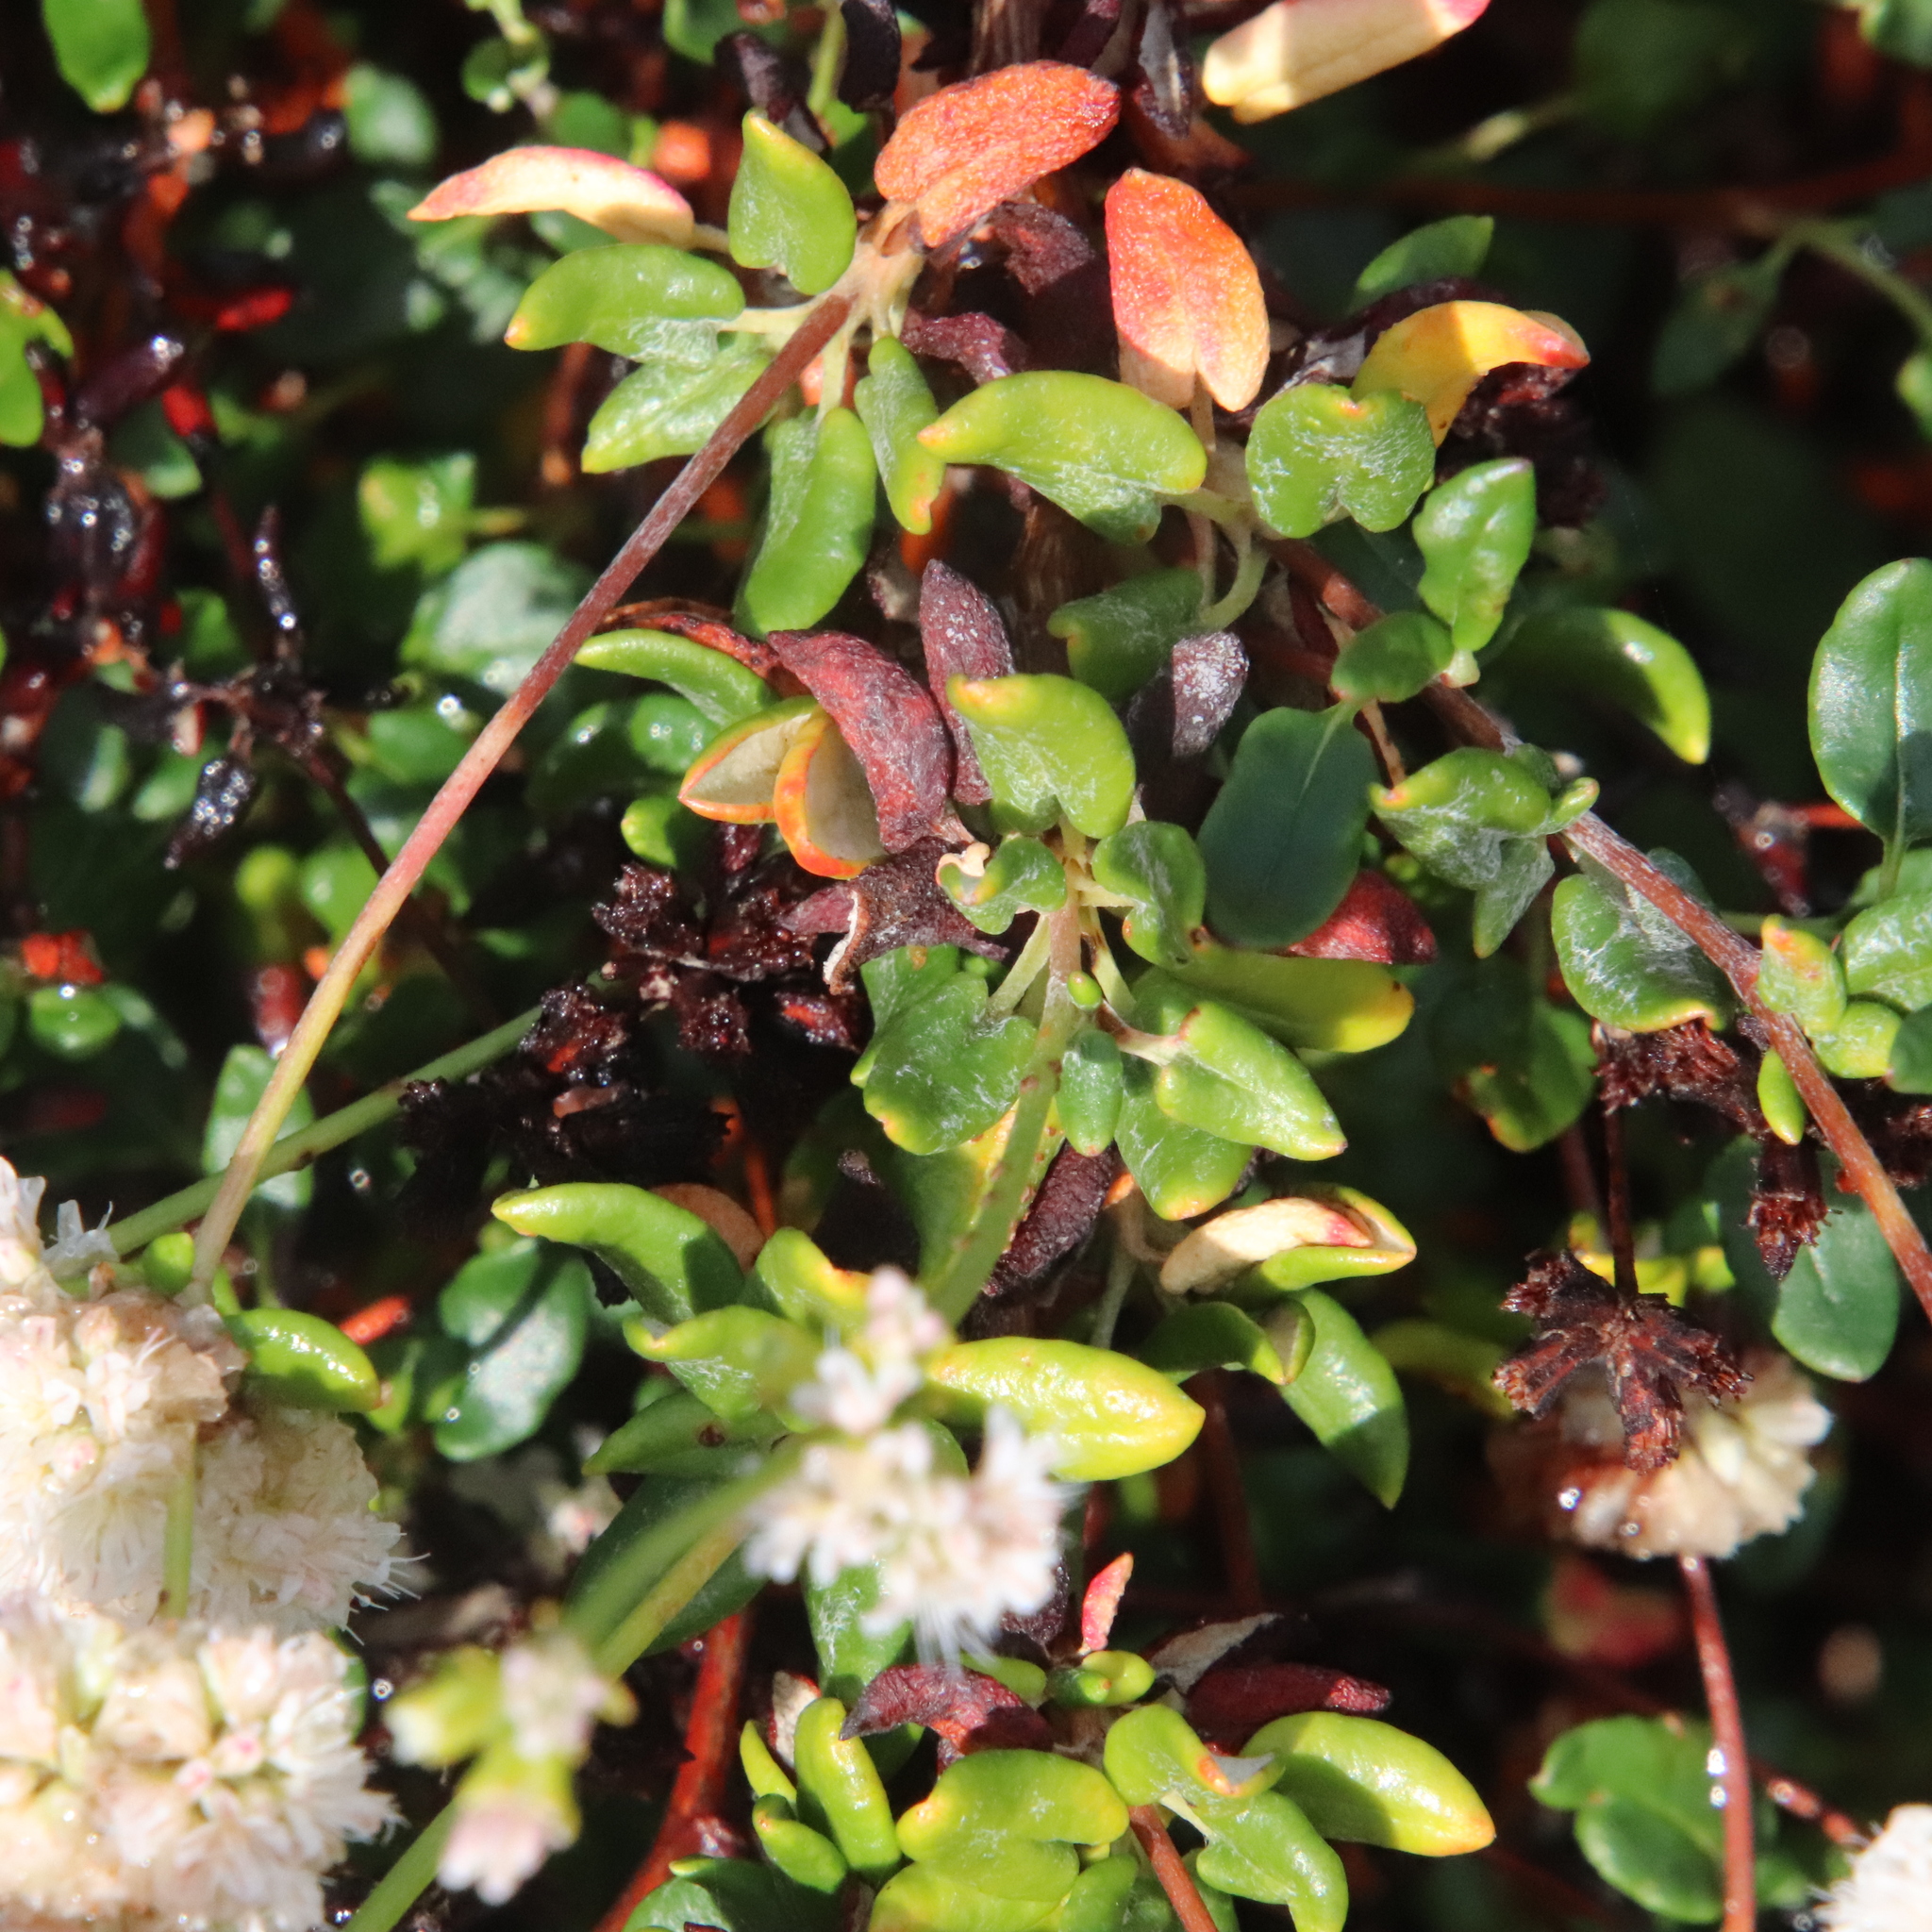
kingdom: Plantae
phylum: Tracheophyta
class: Magnoliopsida
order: Caryophyllales
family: Polygonaceae
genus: Eriogonum
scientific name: Eriogonum parvifolium
